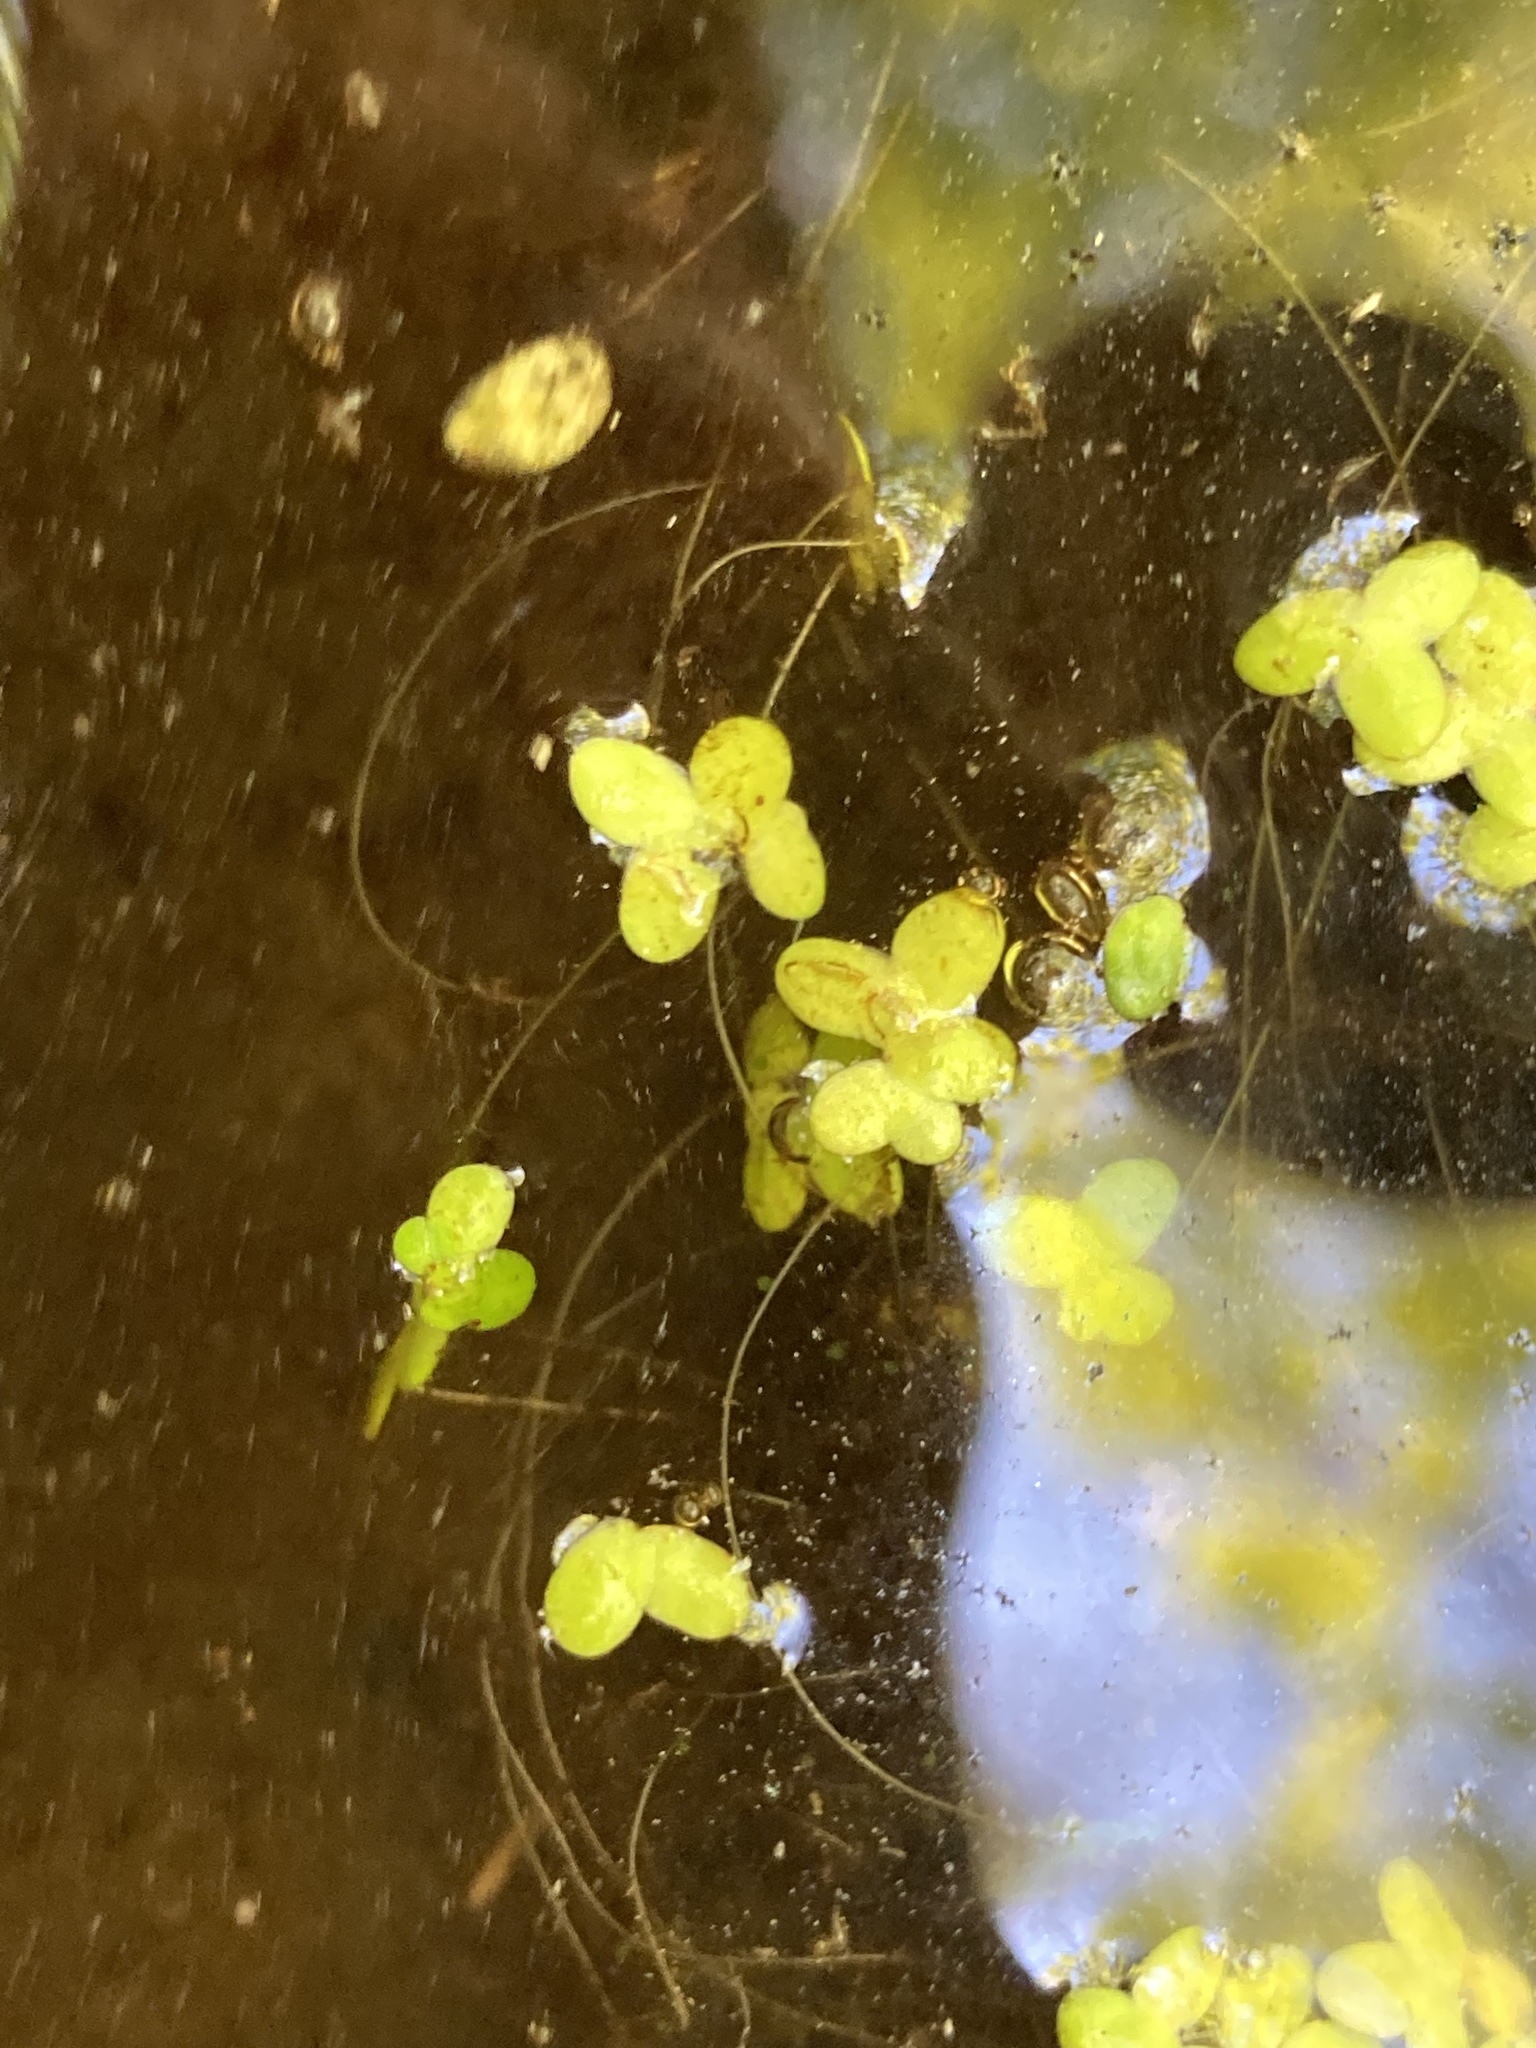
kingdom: Plantae
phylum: Tracheophyta
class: Liliopsida
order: Alismatales
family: Araceae
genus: Lemna
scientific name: Lemna minor
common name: Common duckweed
